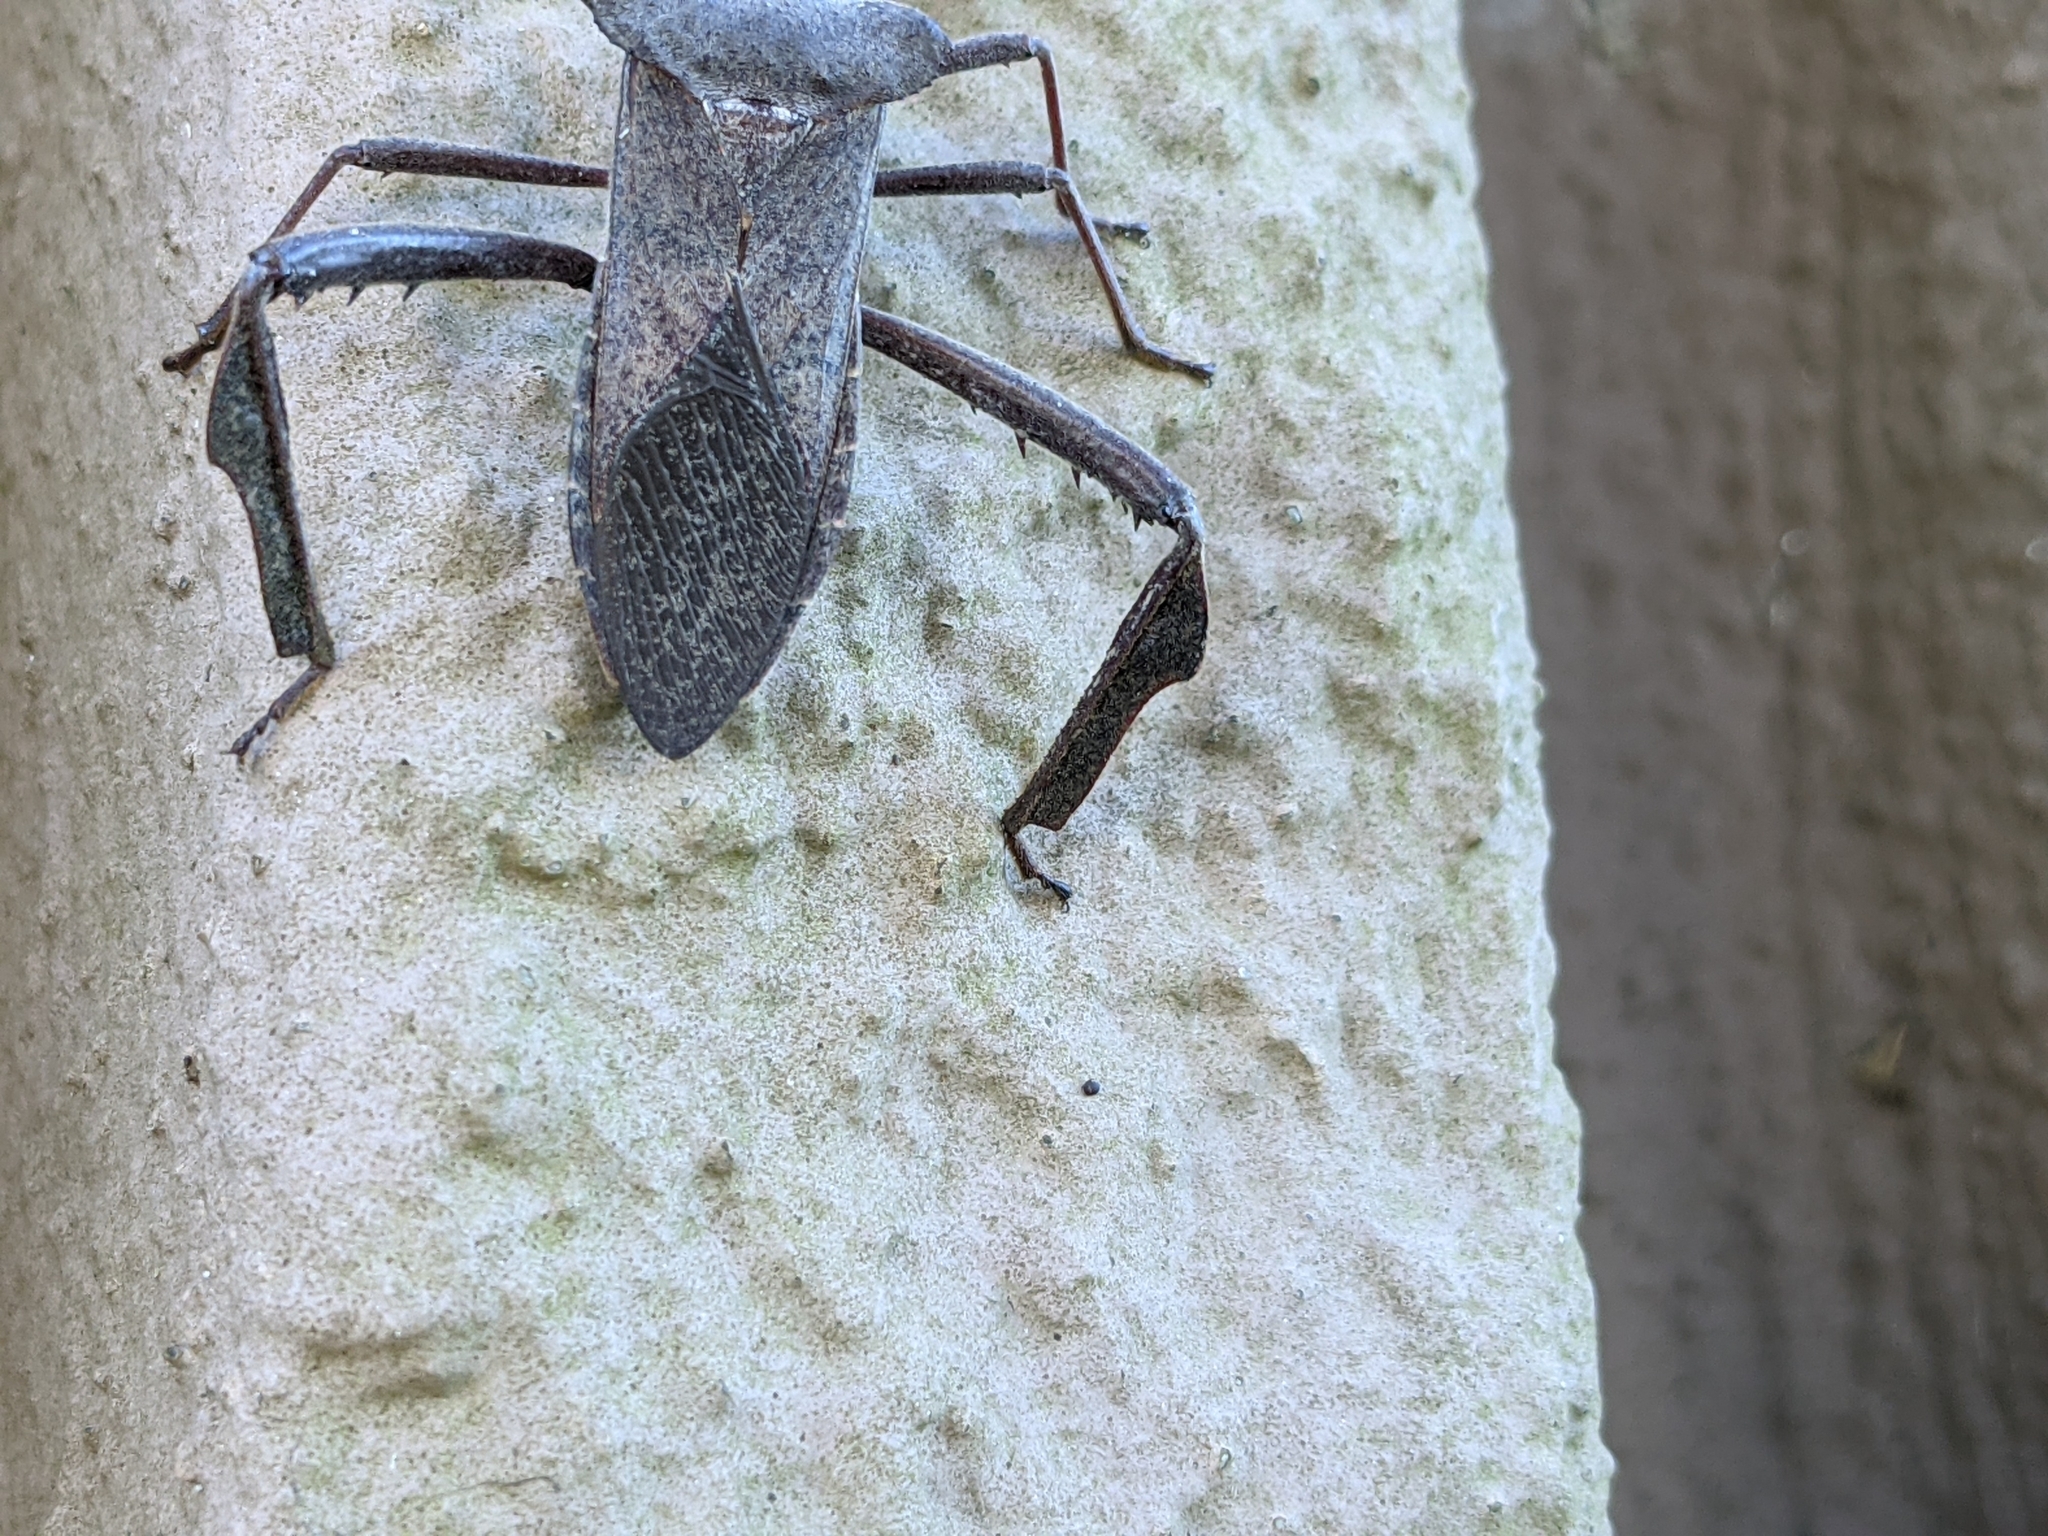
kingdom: Animalia
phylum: Arthropoda
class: Insecta
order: Hemiptera
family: Coreidae
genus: Acanthocephala
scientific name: Acanthocephala declivis
